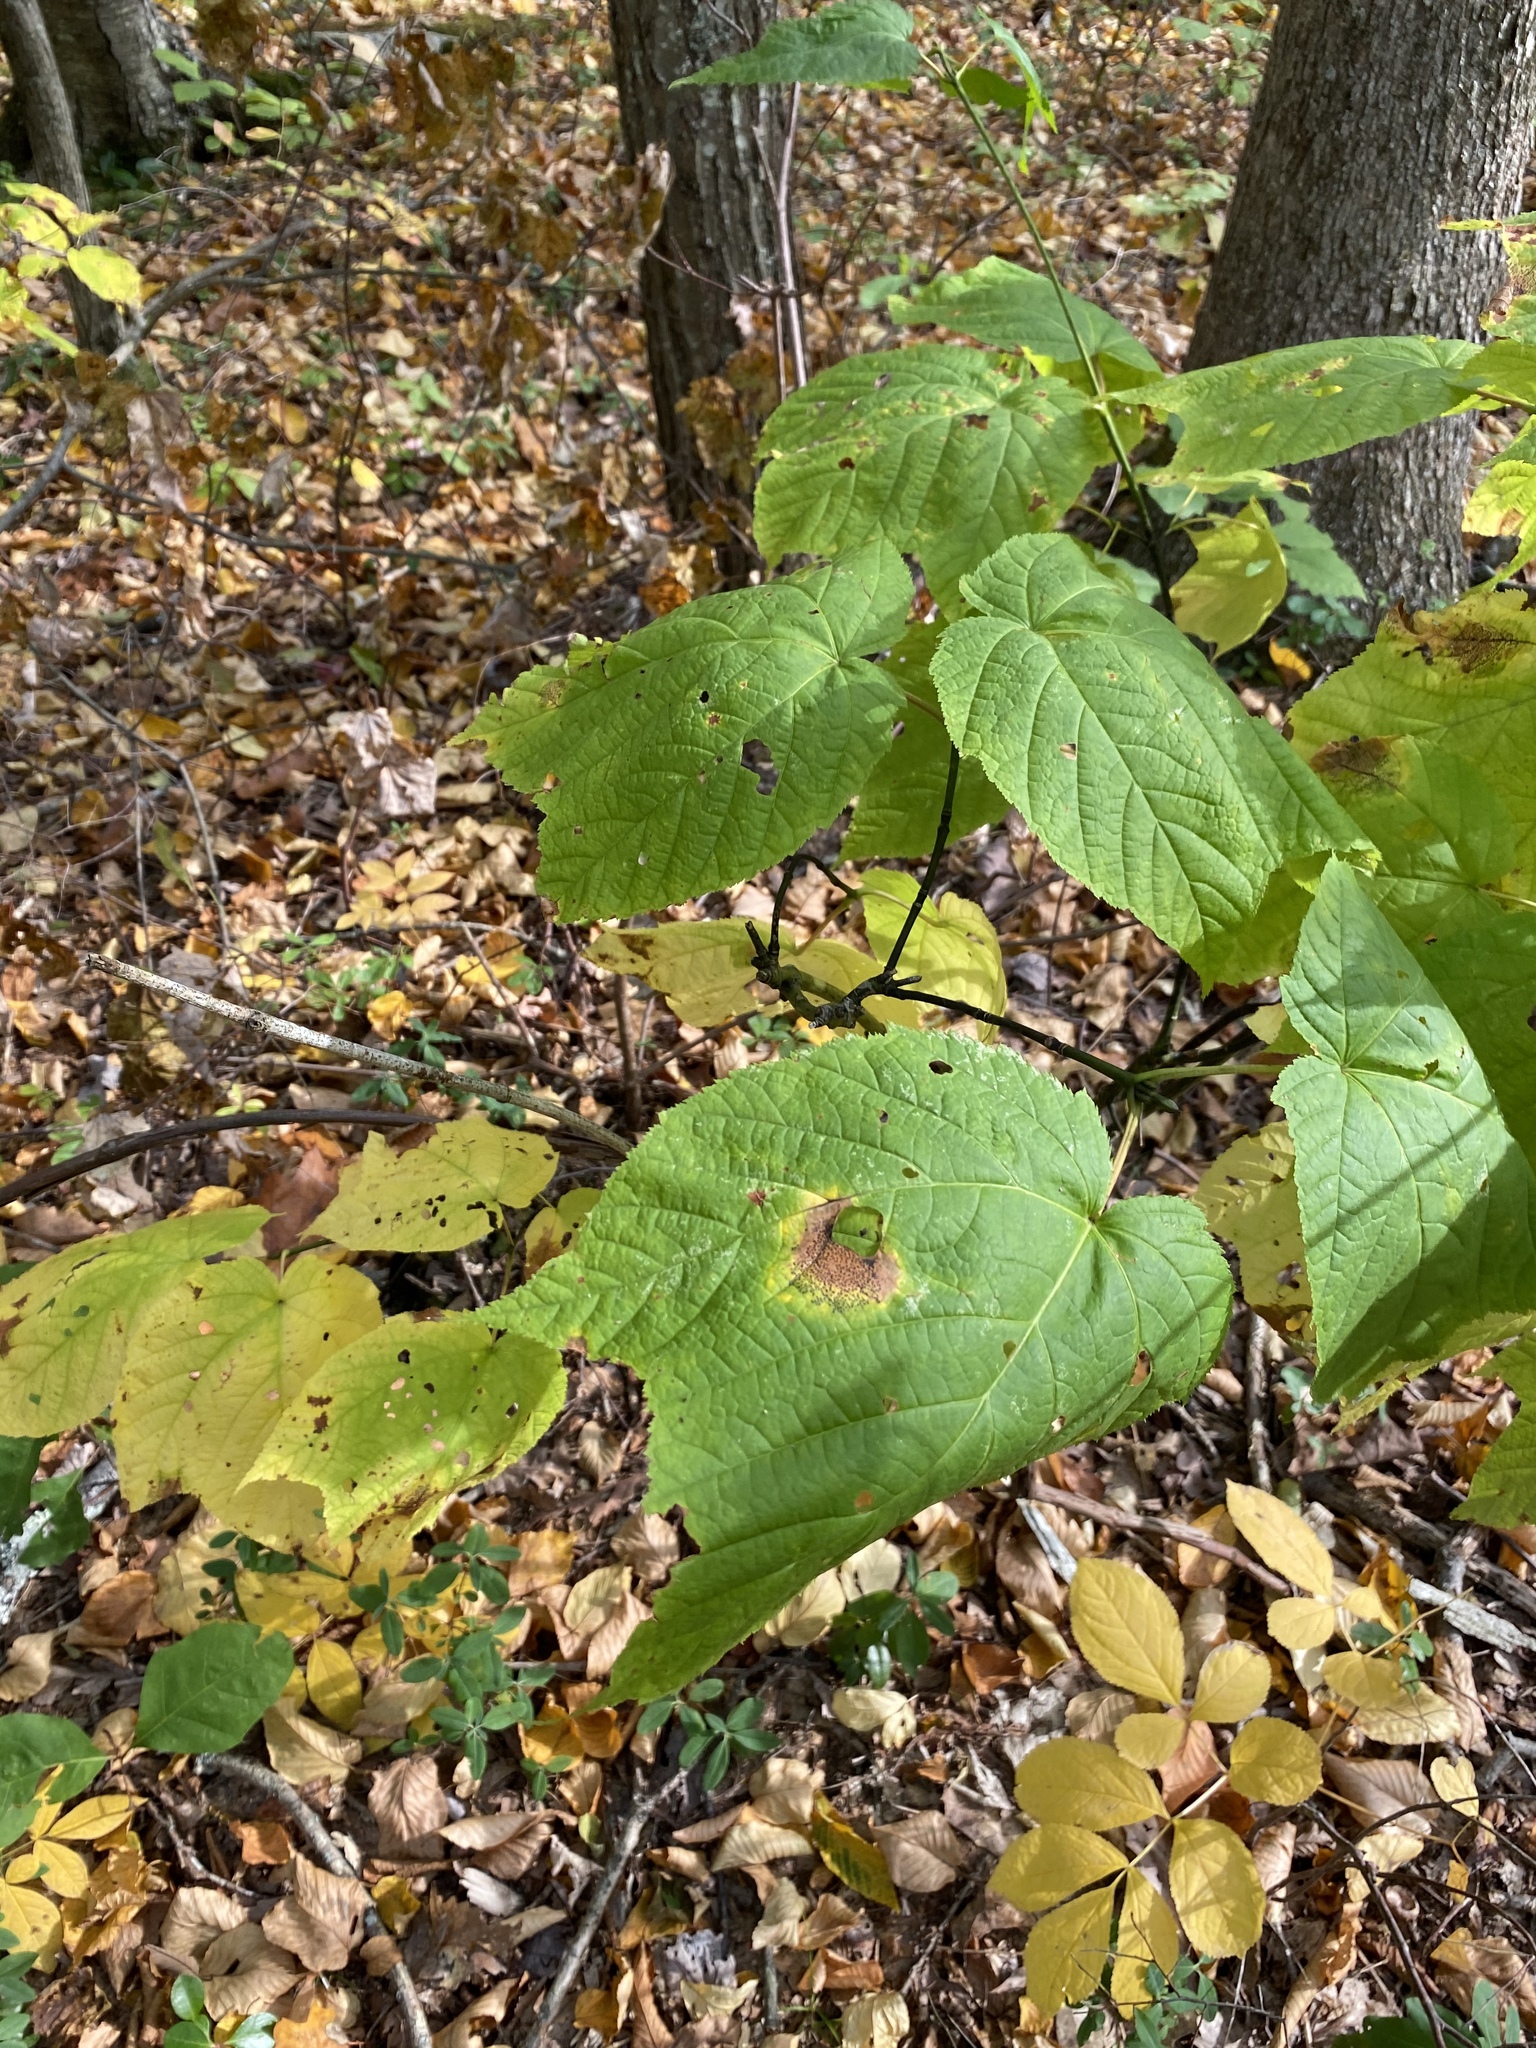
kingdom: Plantae
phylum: Tracheophyta
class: Magnoliopsida
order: Sapindales
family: Sapindaceae
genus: Acer
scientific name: Acer pensylvanicum
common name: Moosewood
